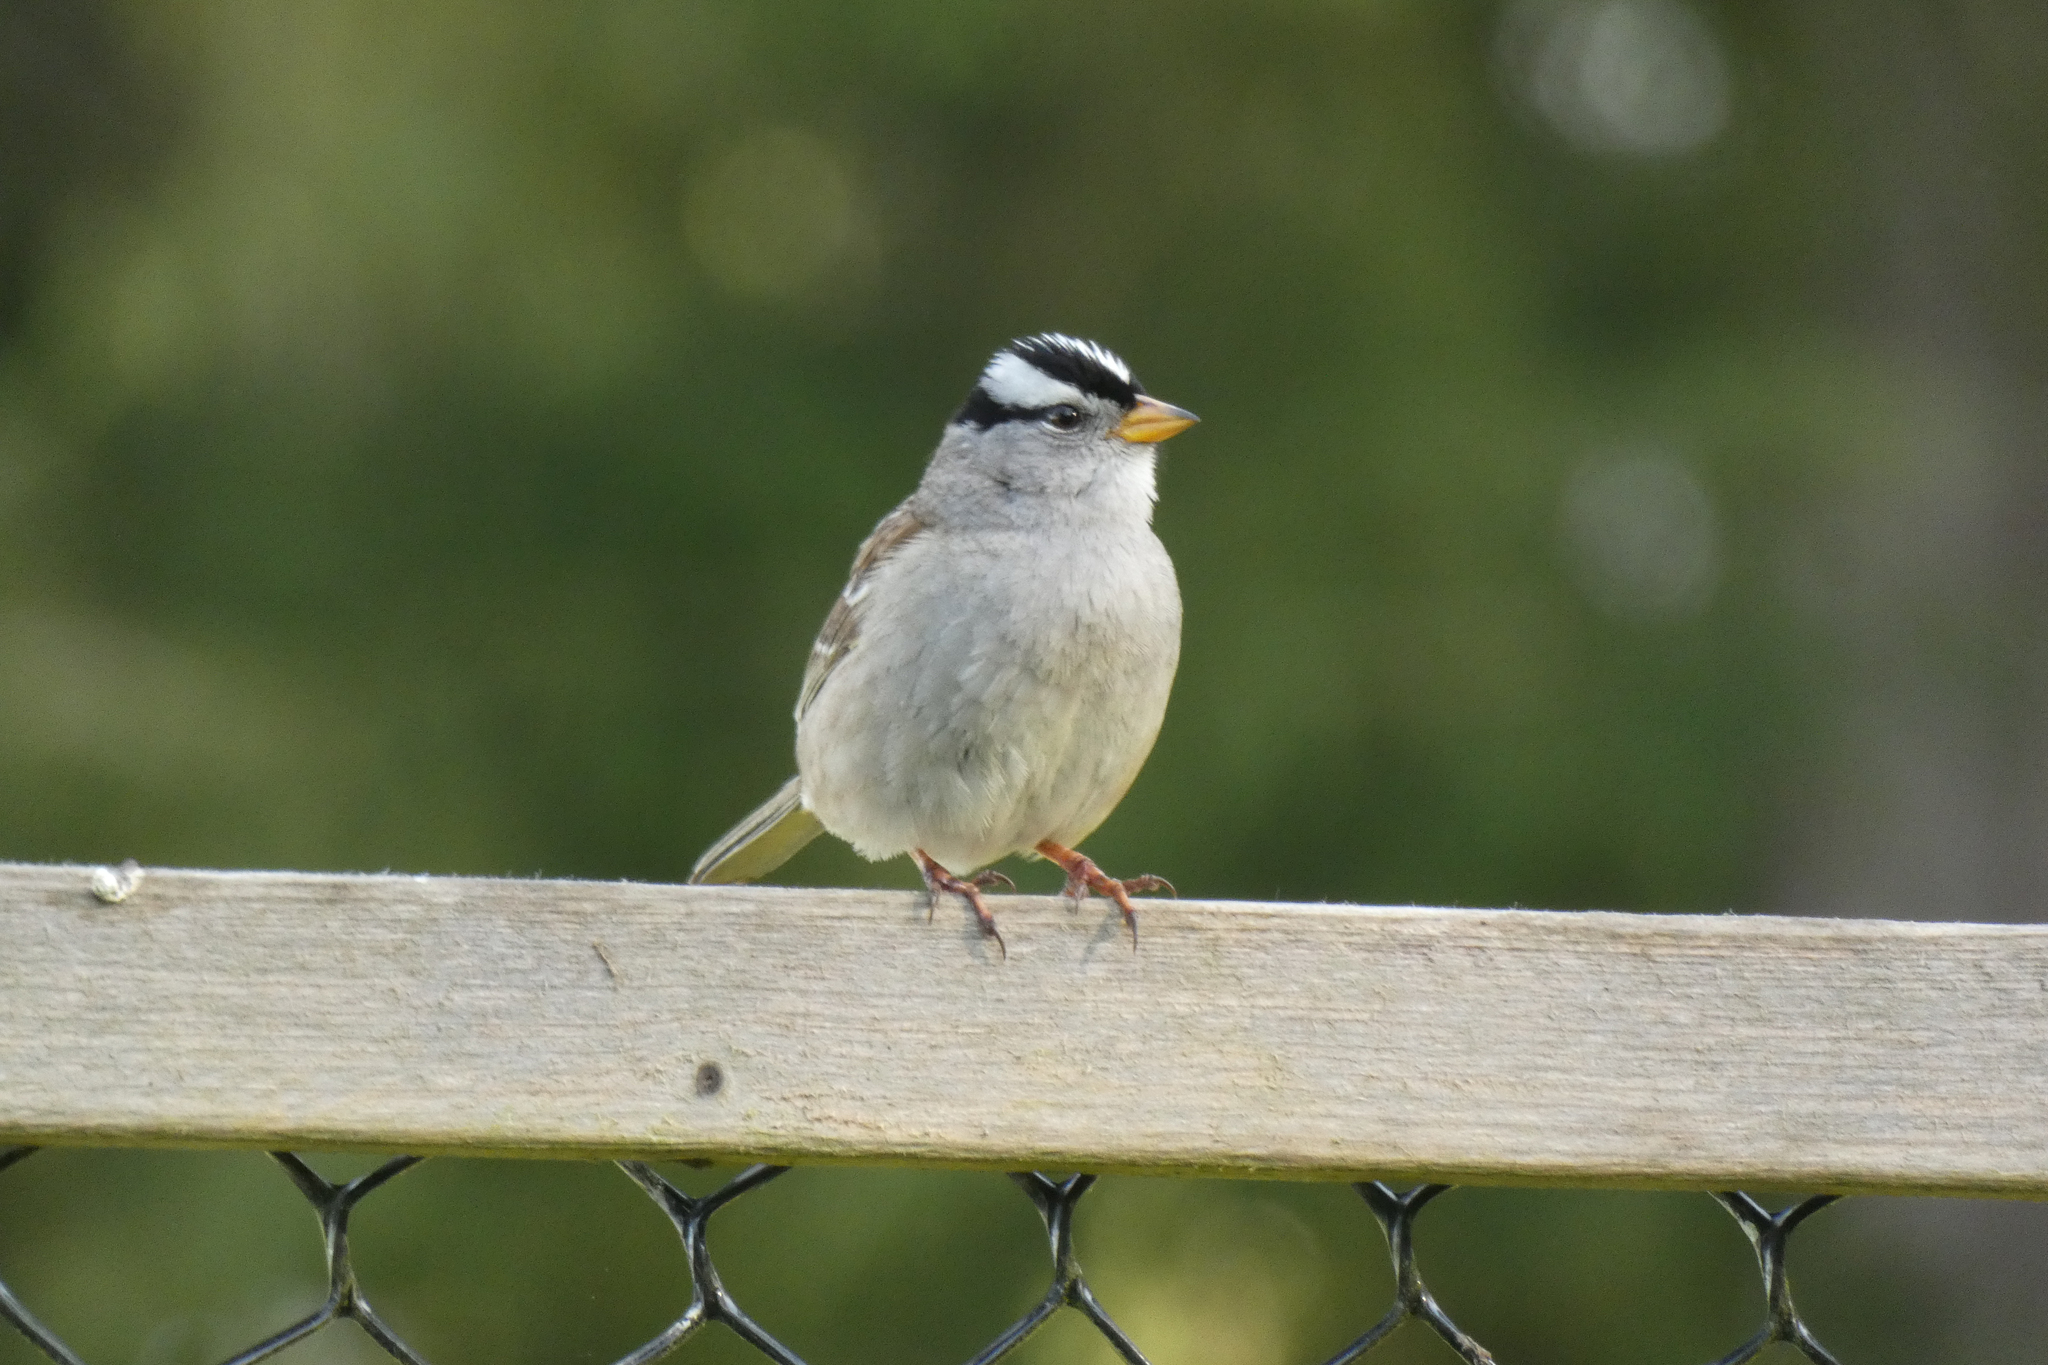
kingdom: Animalia
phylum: Chordata
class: Aves
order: Passeriformes
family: Passerellidae
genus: Zonotrichia
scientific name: Zonotrichia leucophrys
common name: White-crowned sparrow
